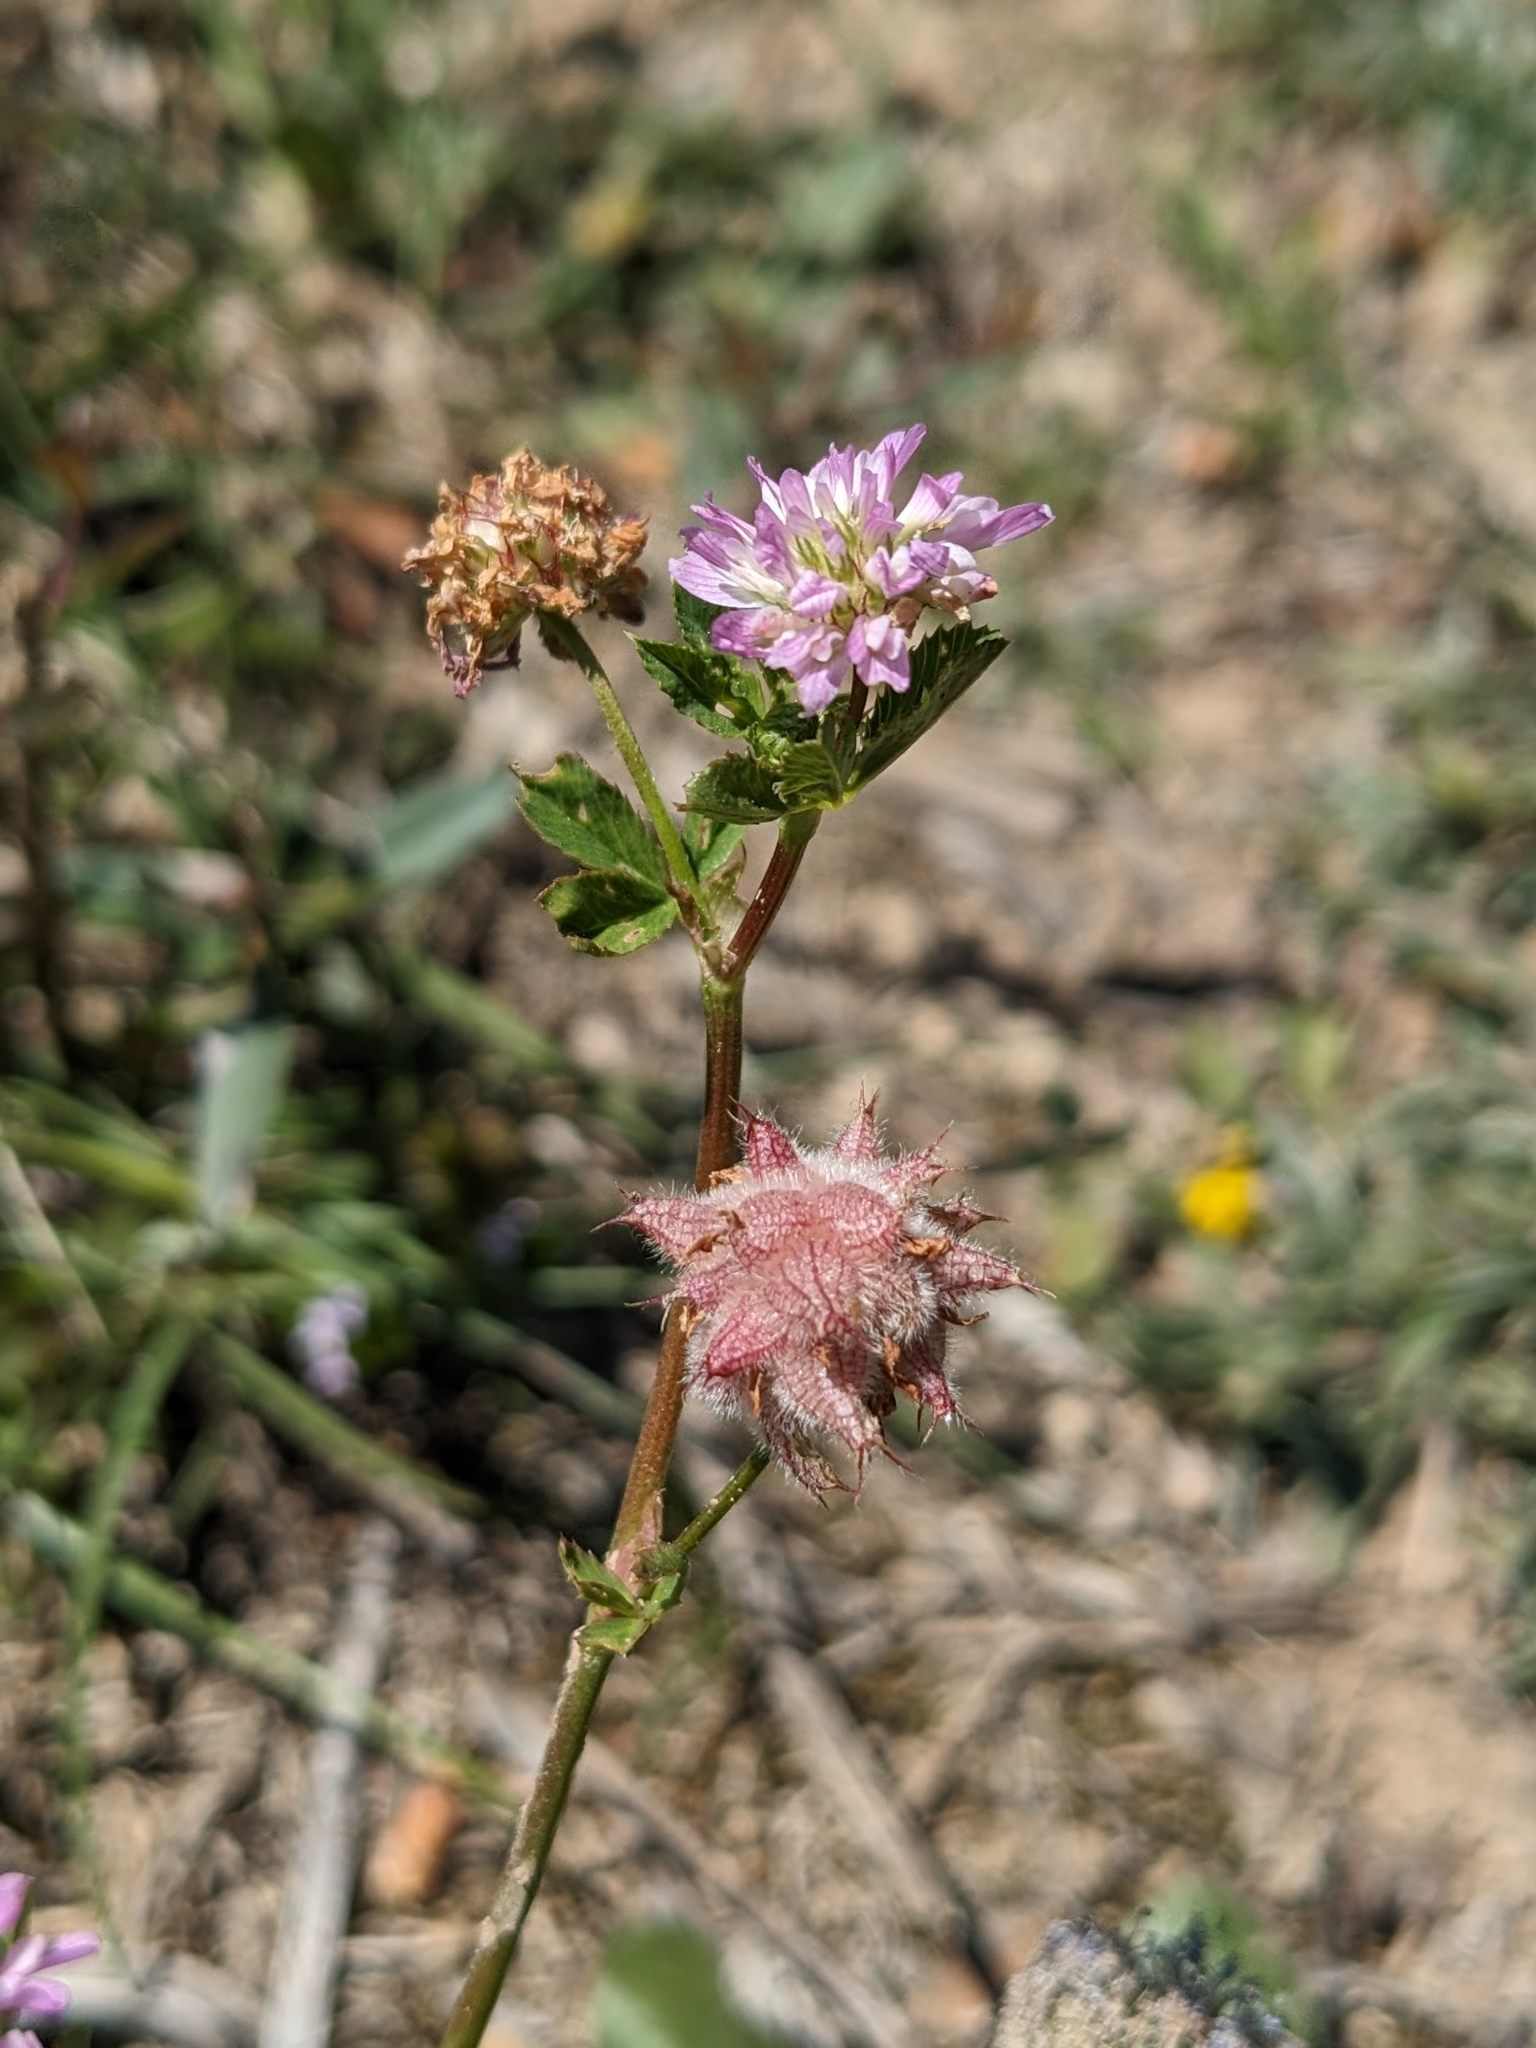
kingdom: Plantae
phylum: Tracheophyta
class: Magnoliopsida
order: Fabales
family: Fabaceae
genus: Trifolium
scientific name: Trifolium resupinatum
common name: Reversed clover
